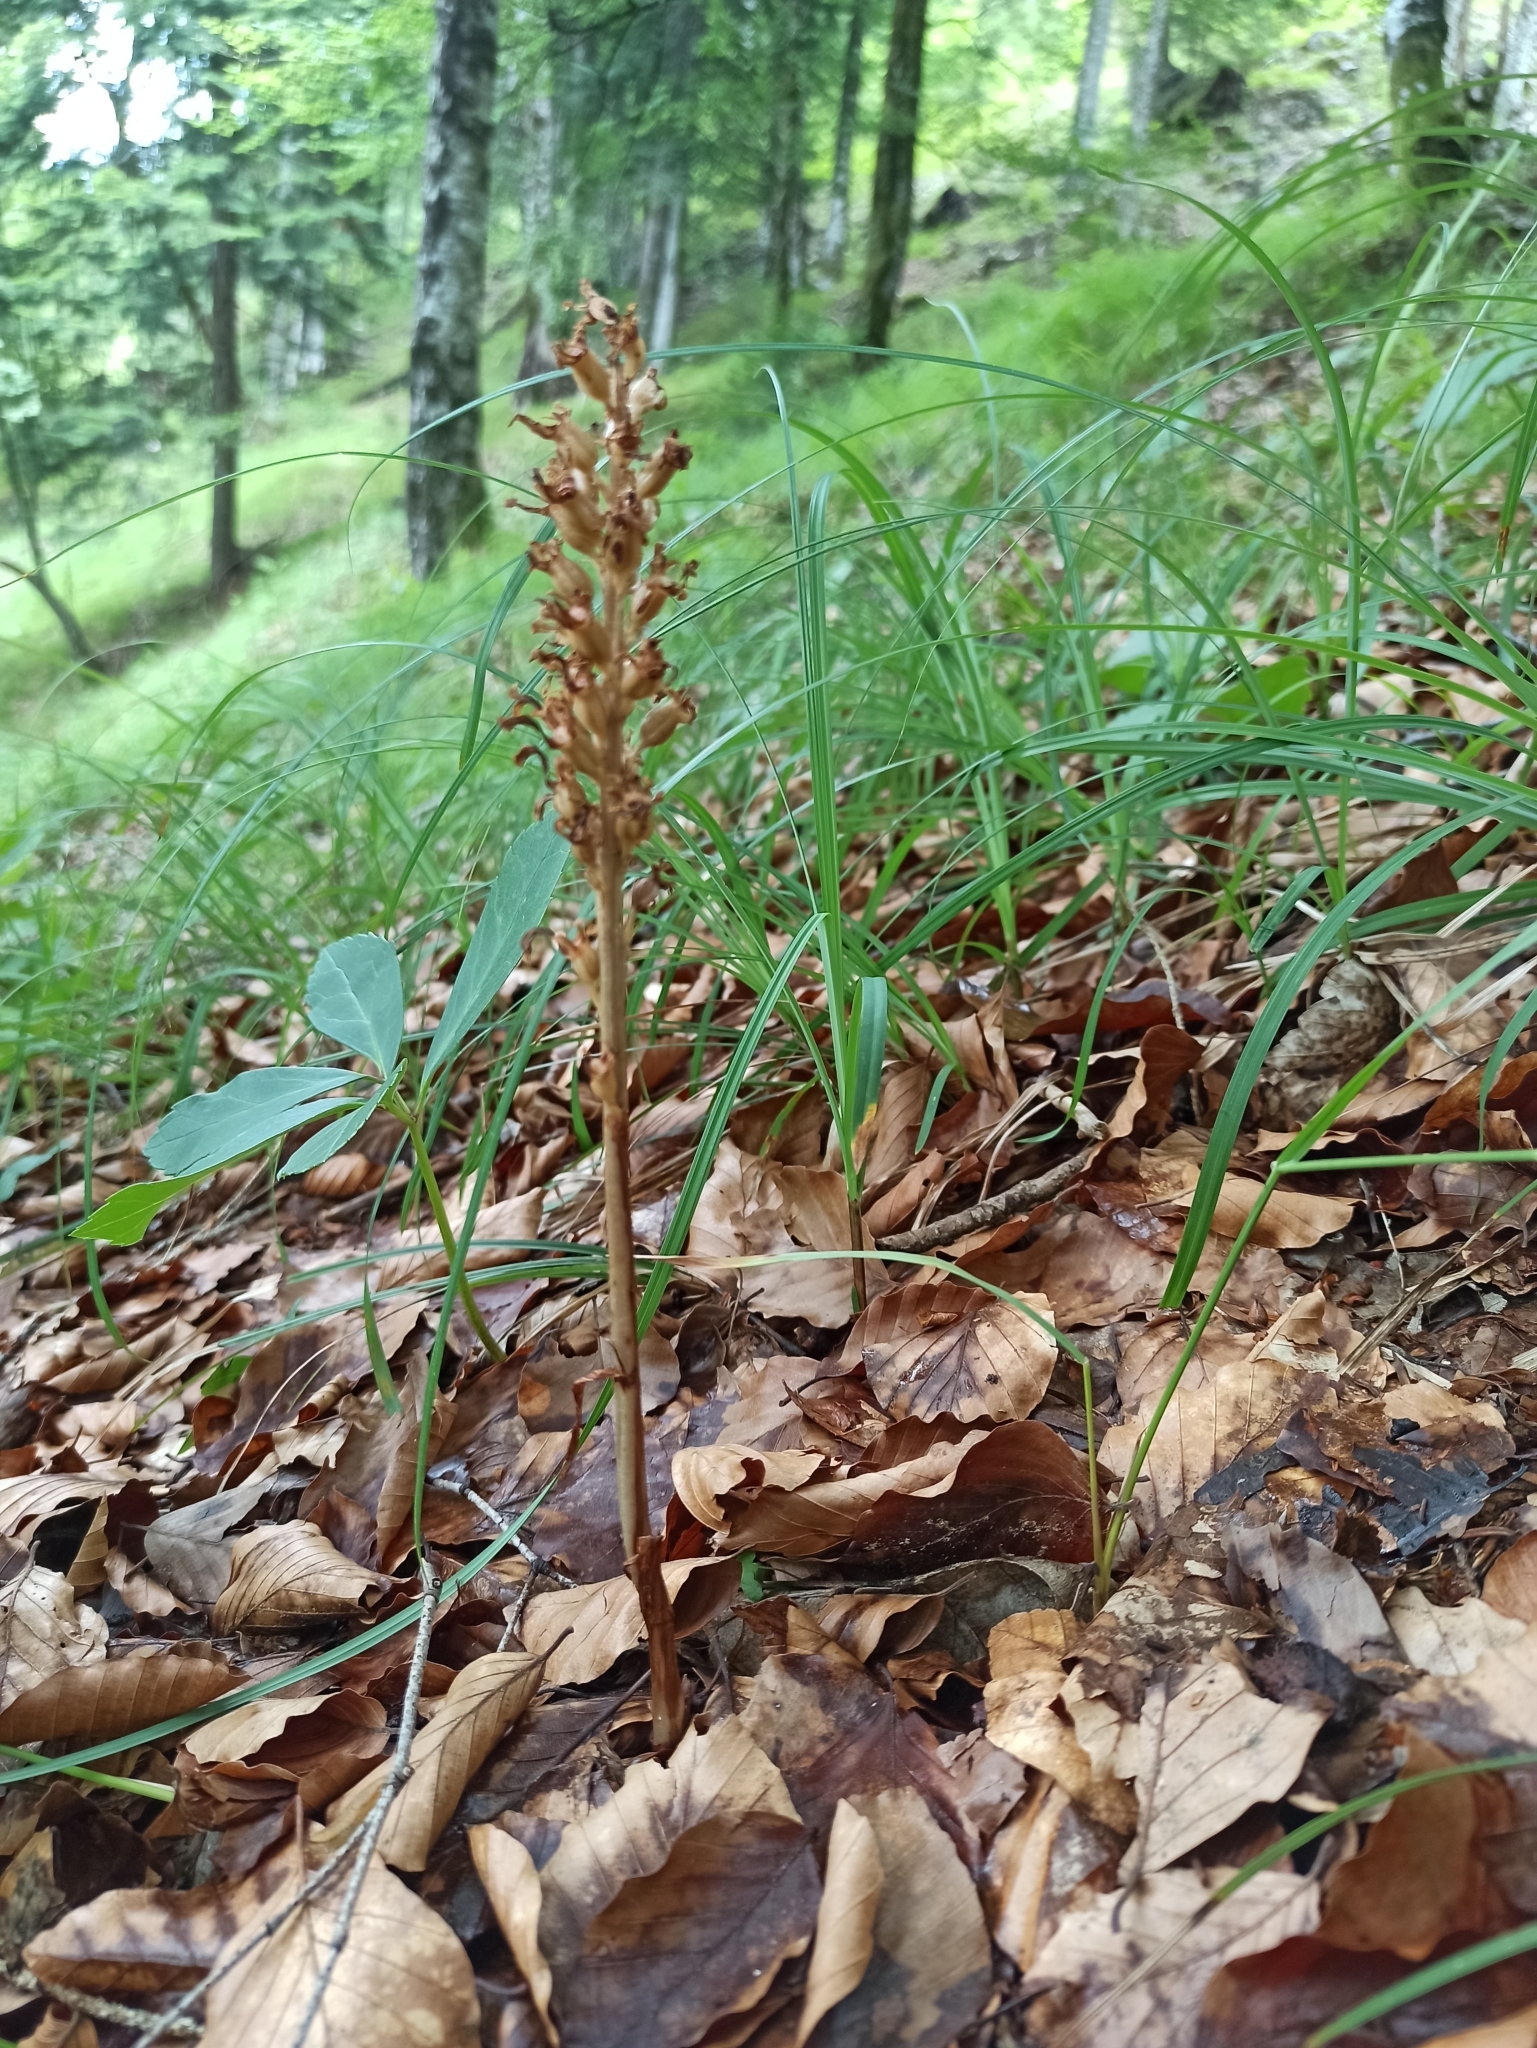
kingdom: Plantae
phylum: Tracheophyta
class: Liliopsida
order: Asparagales
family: Orchidaceae
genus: Neottia
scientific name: Neottia nidus-avis
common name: Bird's-nest orchid
